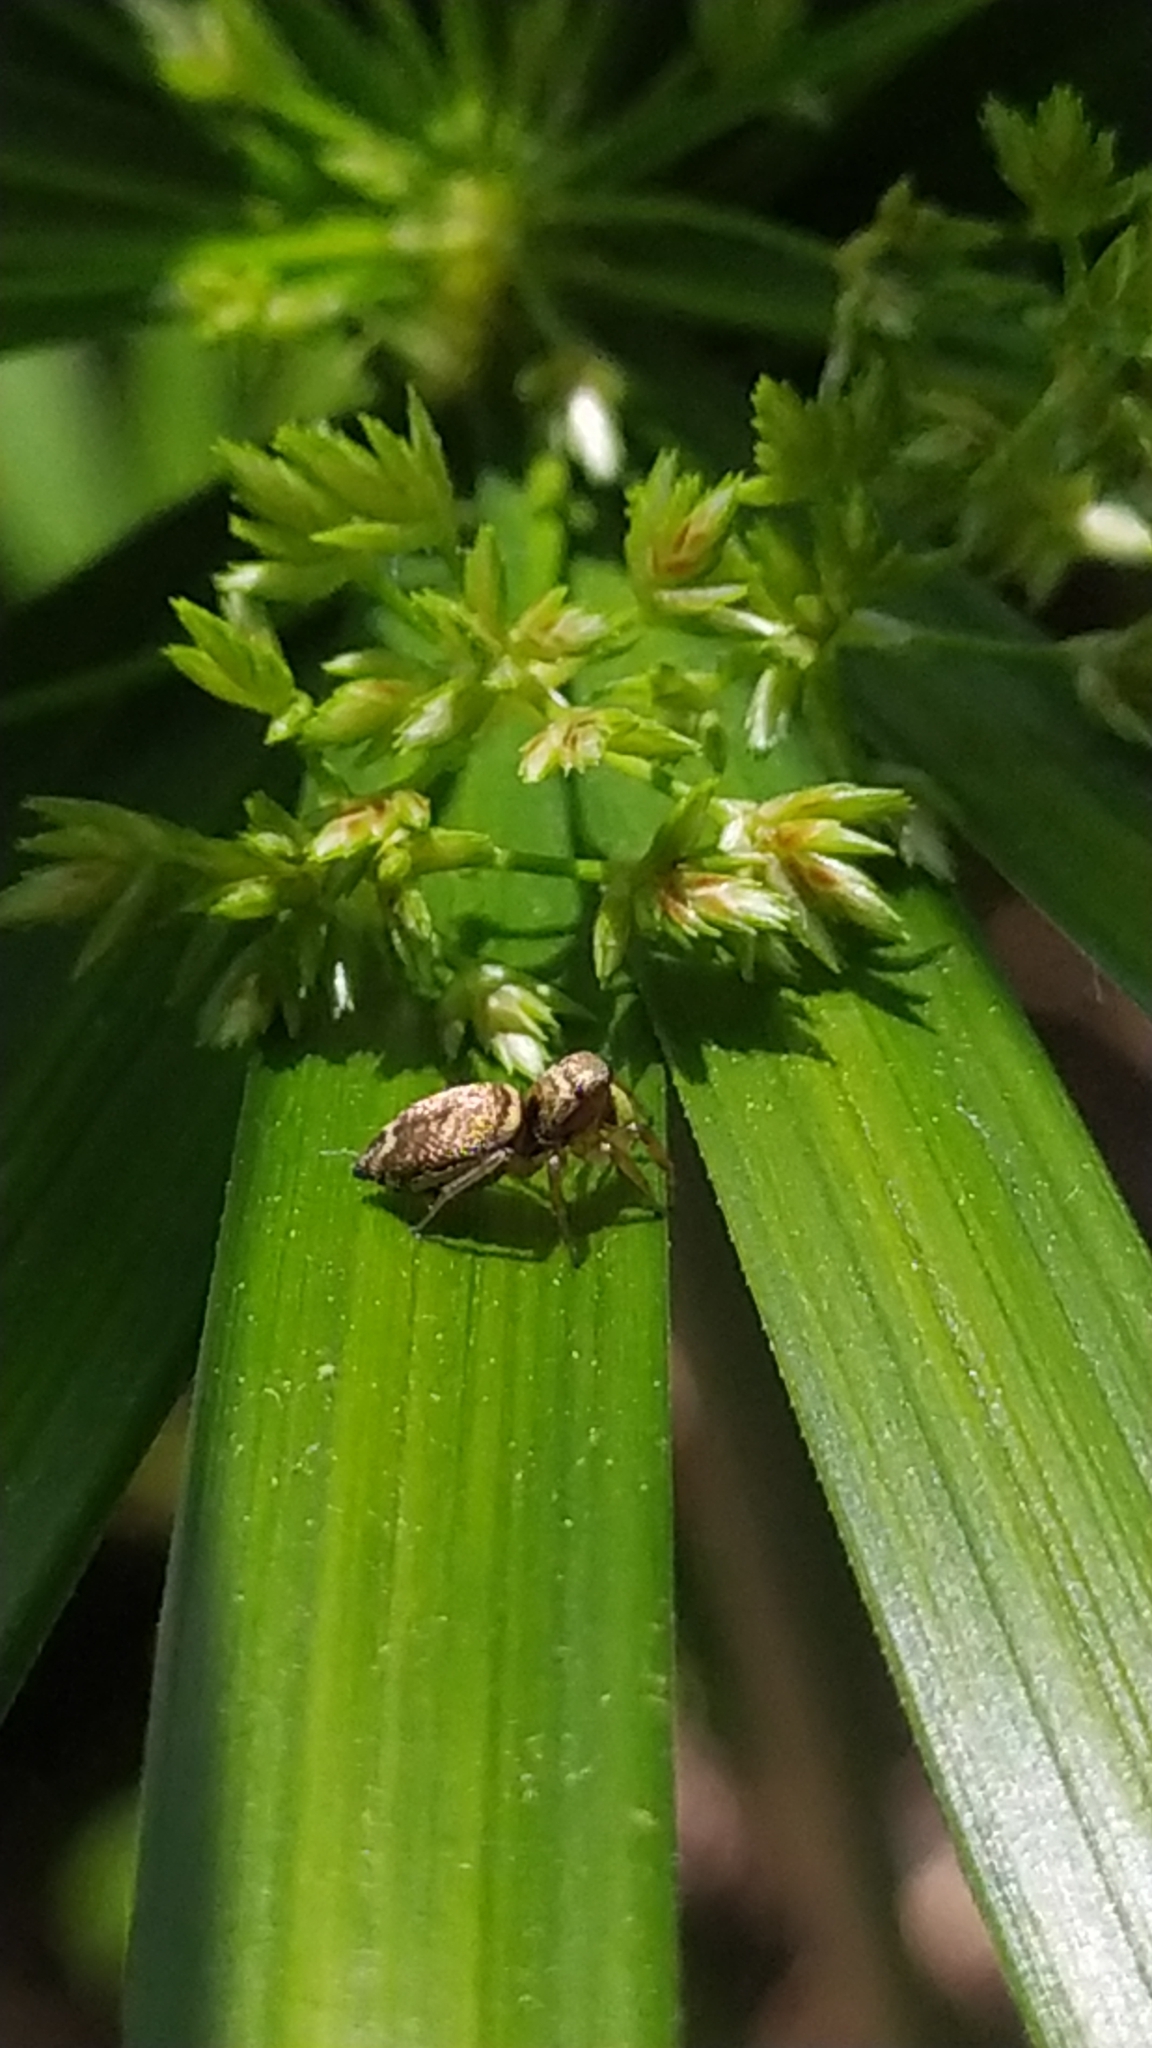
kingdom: Animalia
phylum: Arthropoda
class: Arachnida
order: Araneae
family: Salticidae
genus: Heliophanus
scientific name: Heliophanus tribulosus
